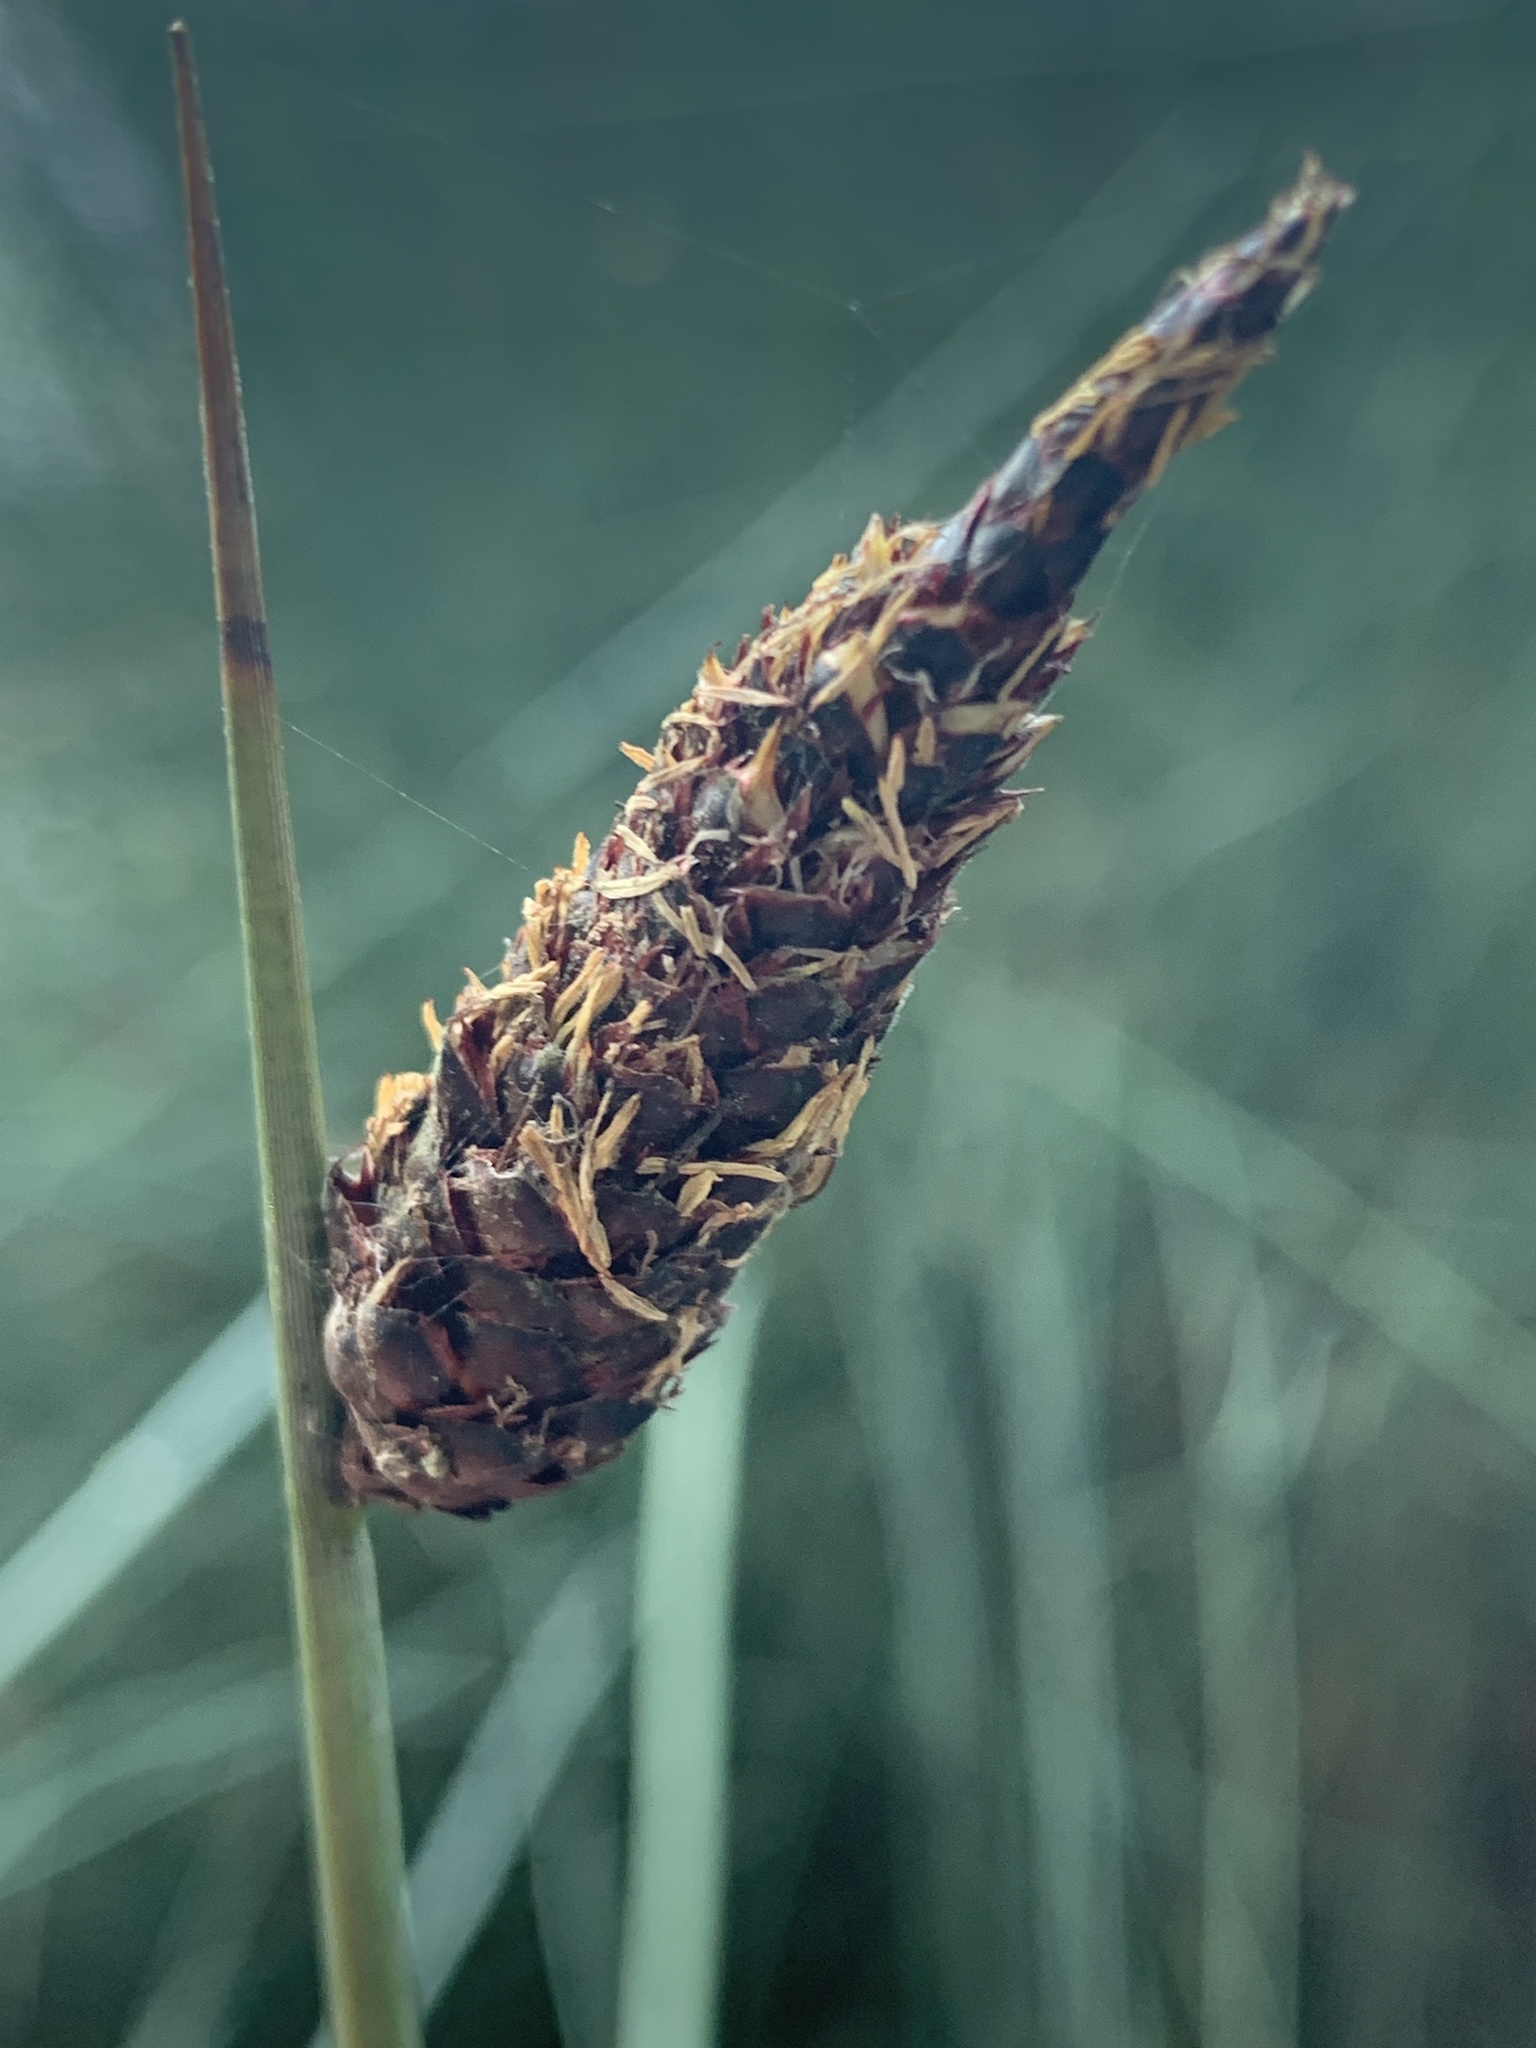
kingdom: Plantae
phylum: Tracheophyta
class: Liliopsida
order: Poales
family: Cyperaceae
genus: Lepironia
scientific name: Lepironia articulata
